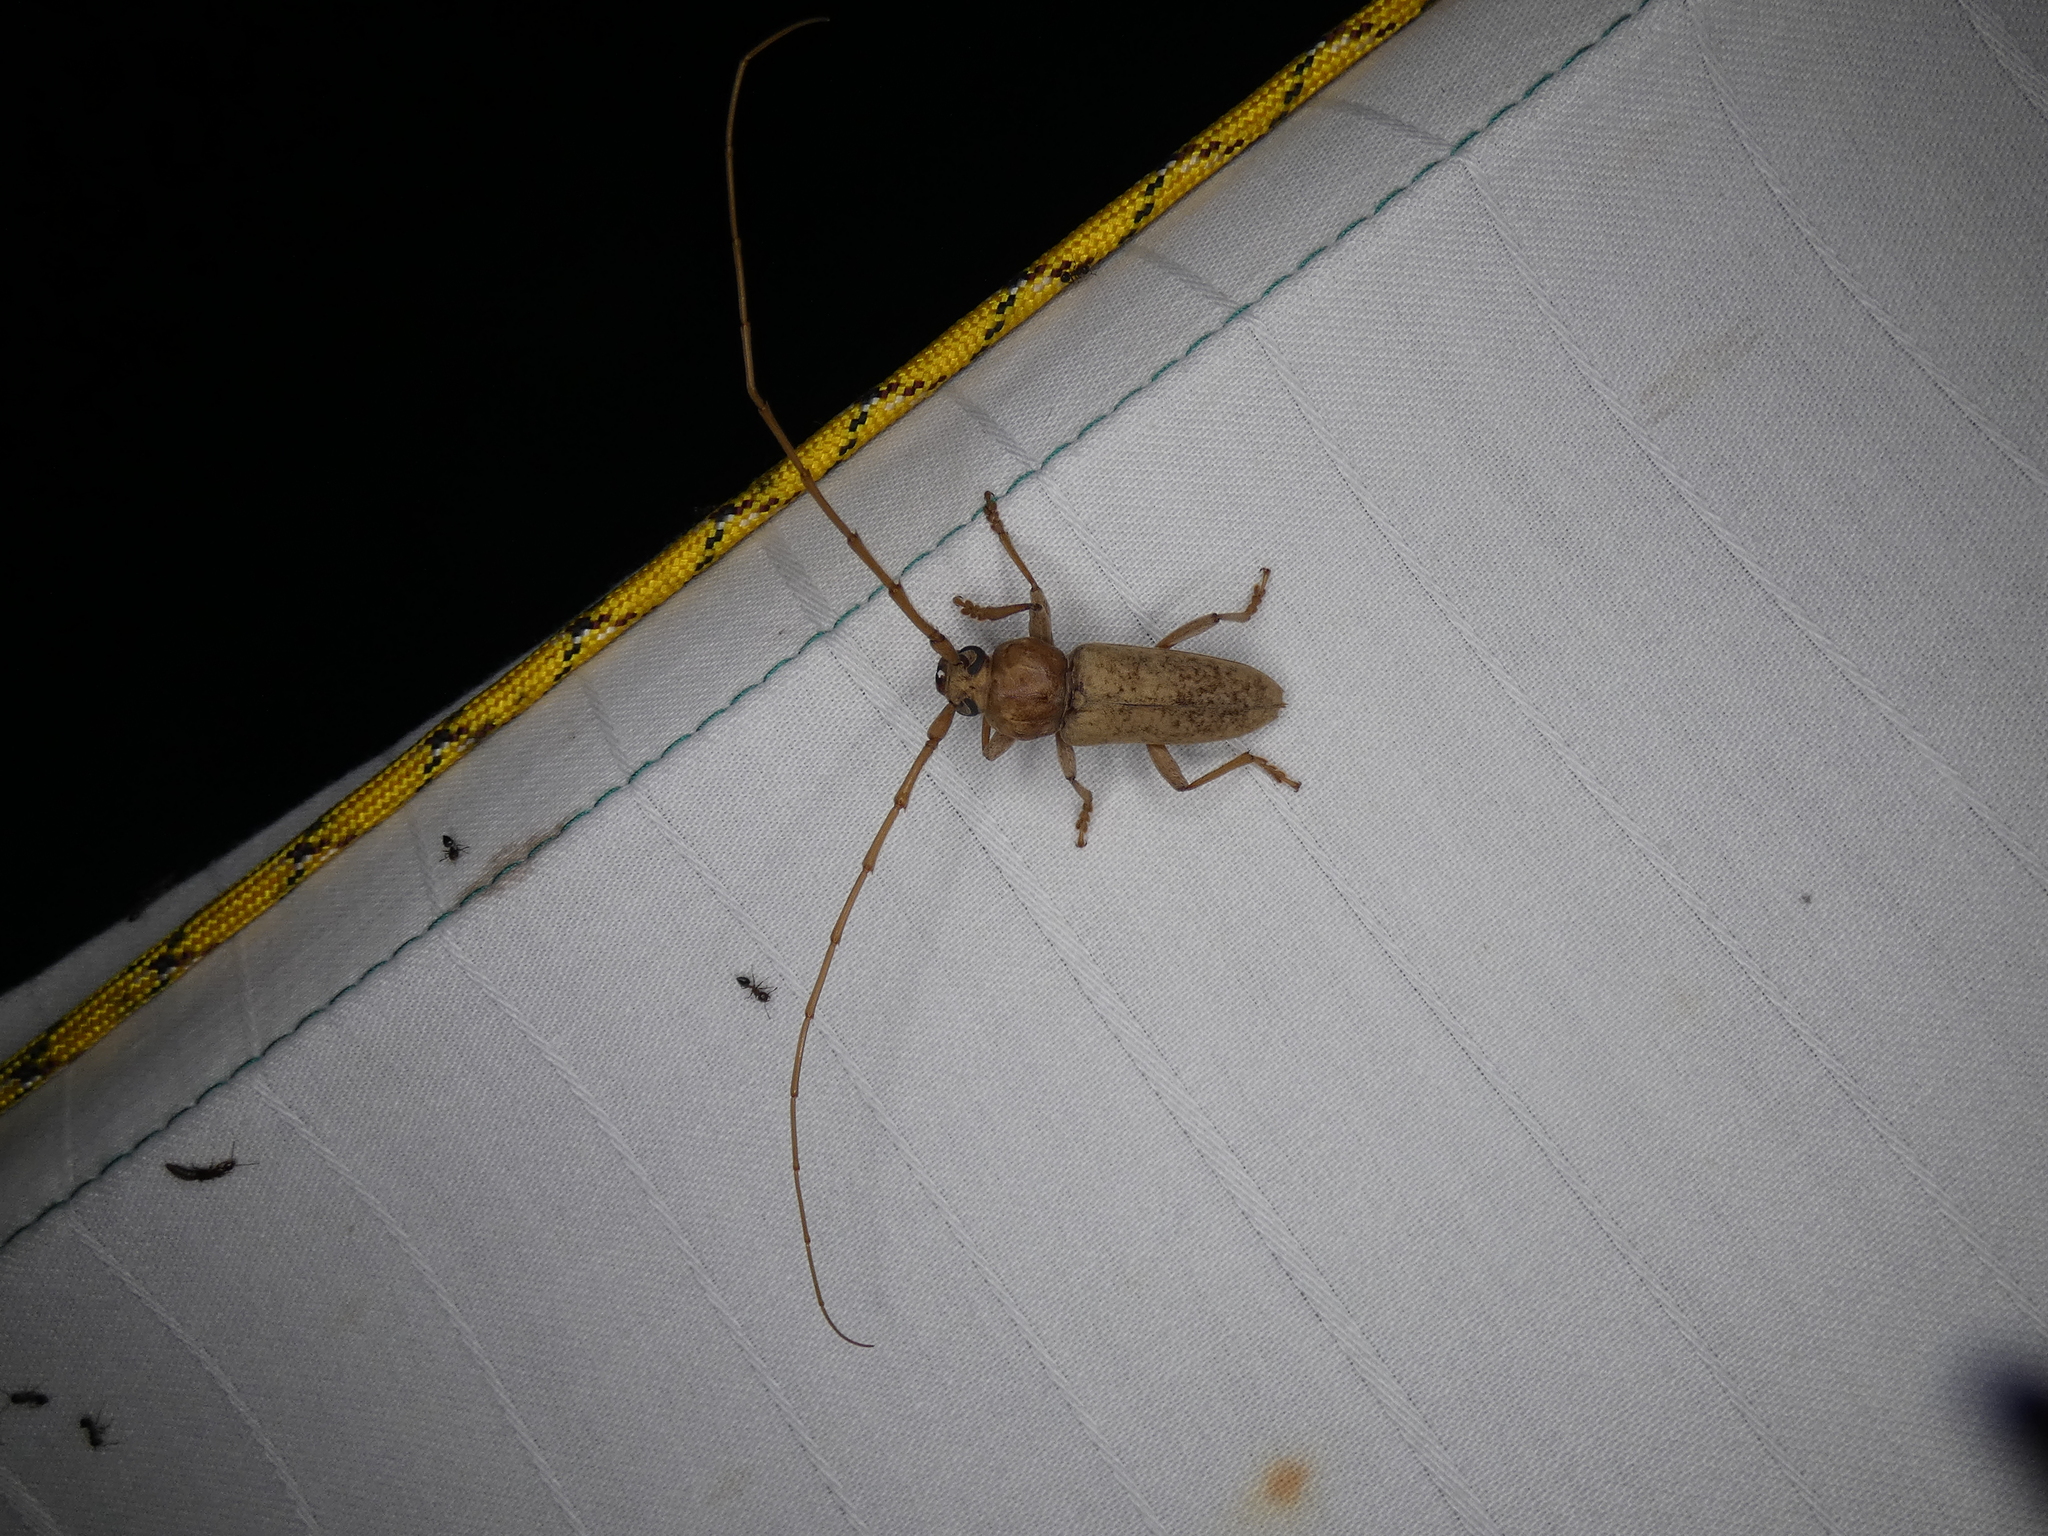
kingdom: Animalia
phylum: Arthropoda
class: Insecta
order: Coleoptera
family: Cerambycidae
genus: Enaphalodes
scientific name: Enaphalodes rufulus
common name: Red oak borer
